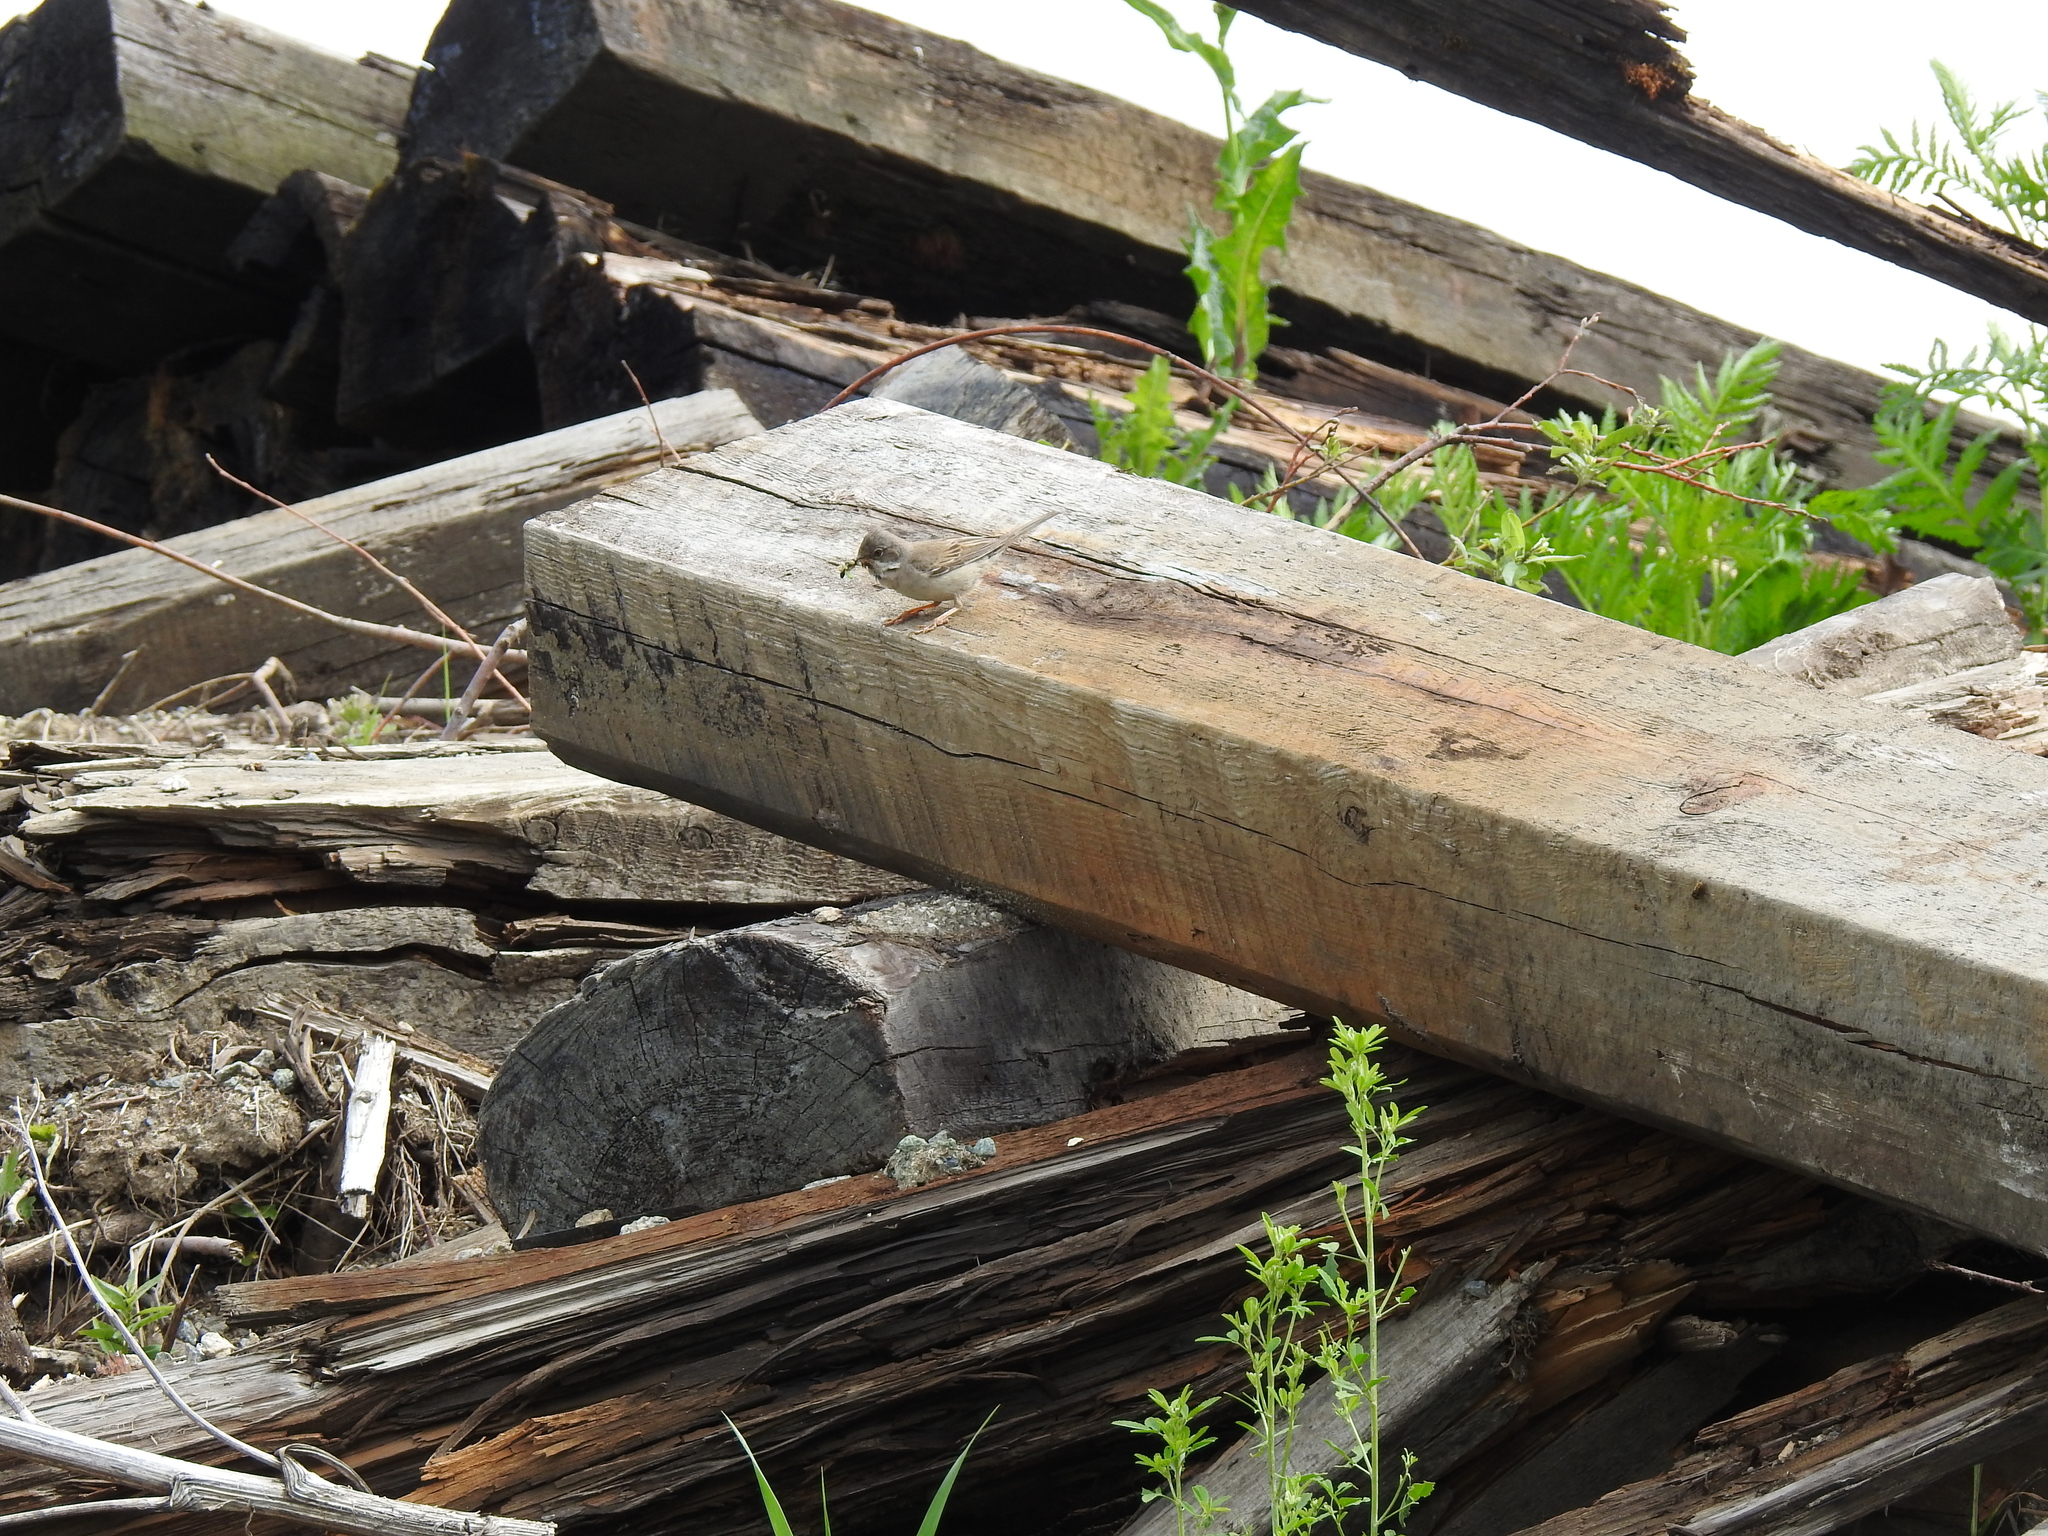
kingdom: Animalia
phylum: Chordata
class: Aves
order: Passeriformes
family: Sylviidae
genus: Sylvia
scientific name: Sylvia communis
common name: Common whitethroat
